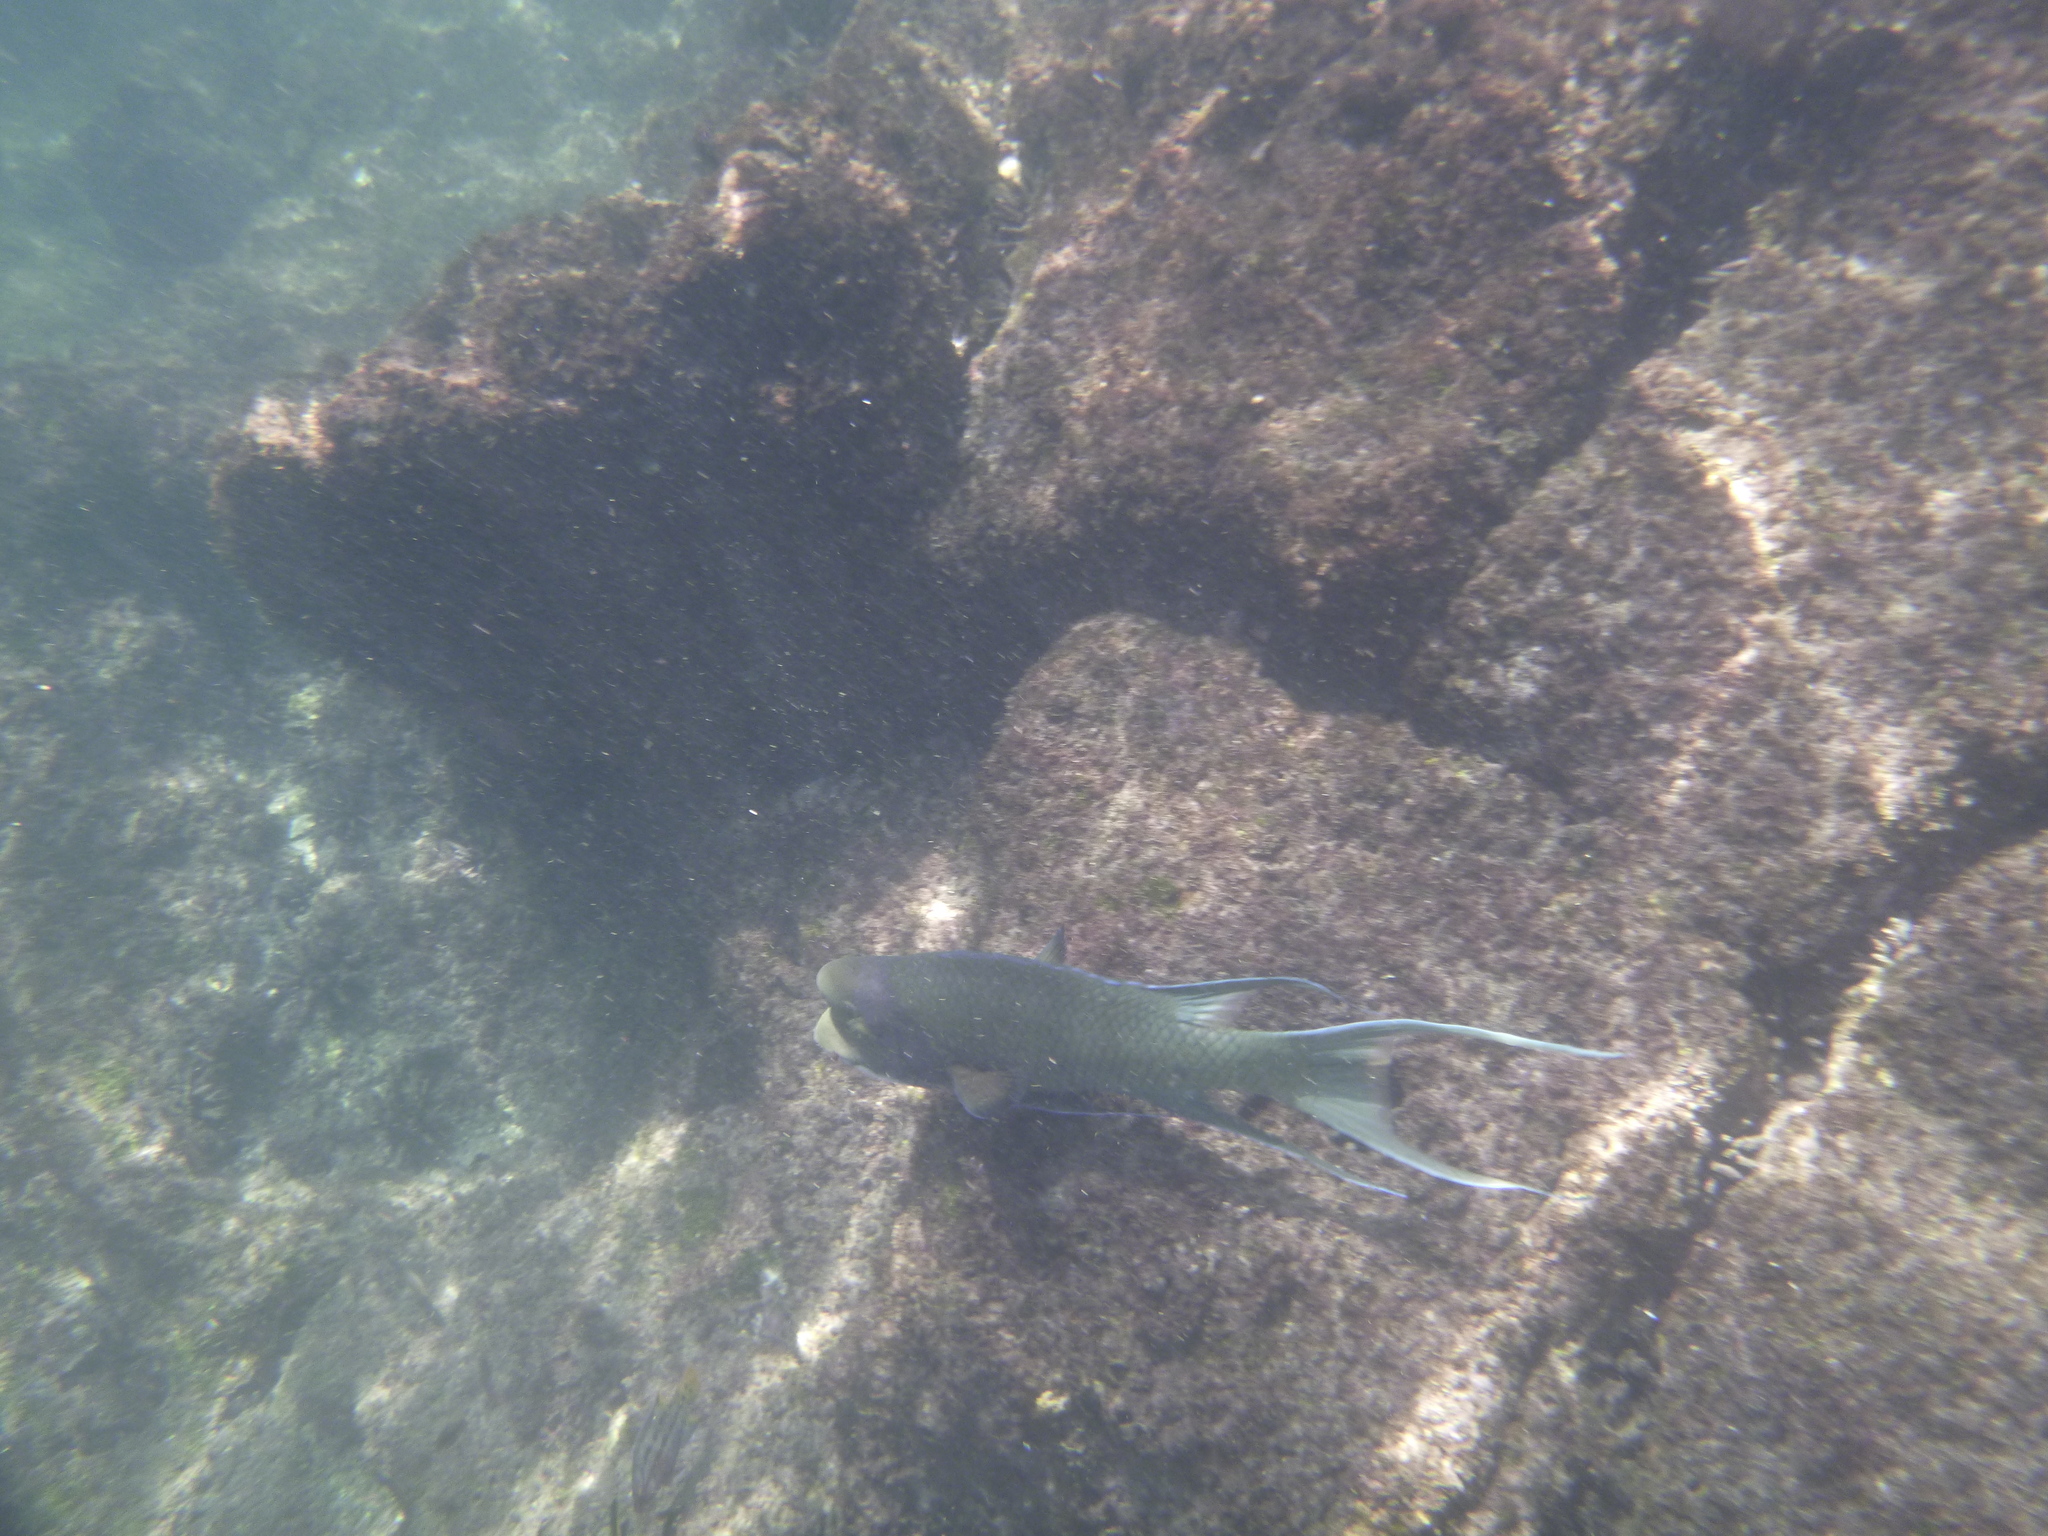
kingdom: Animalia
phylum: Chordata
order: Perciformes
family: Labridae
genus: Bodianus
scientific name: Bodianus diplotaenia
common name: Mexican hogfish
